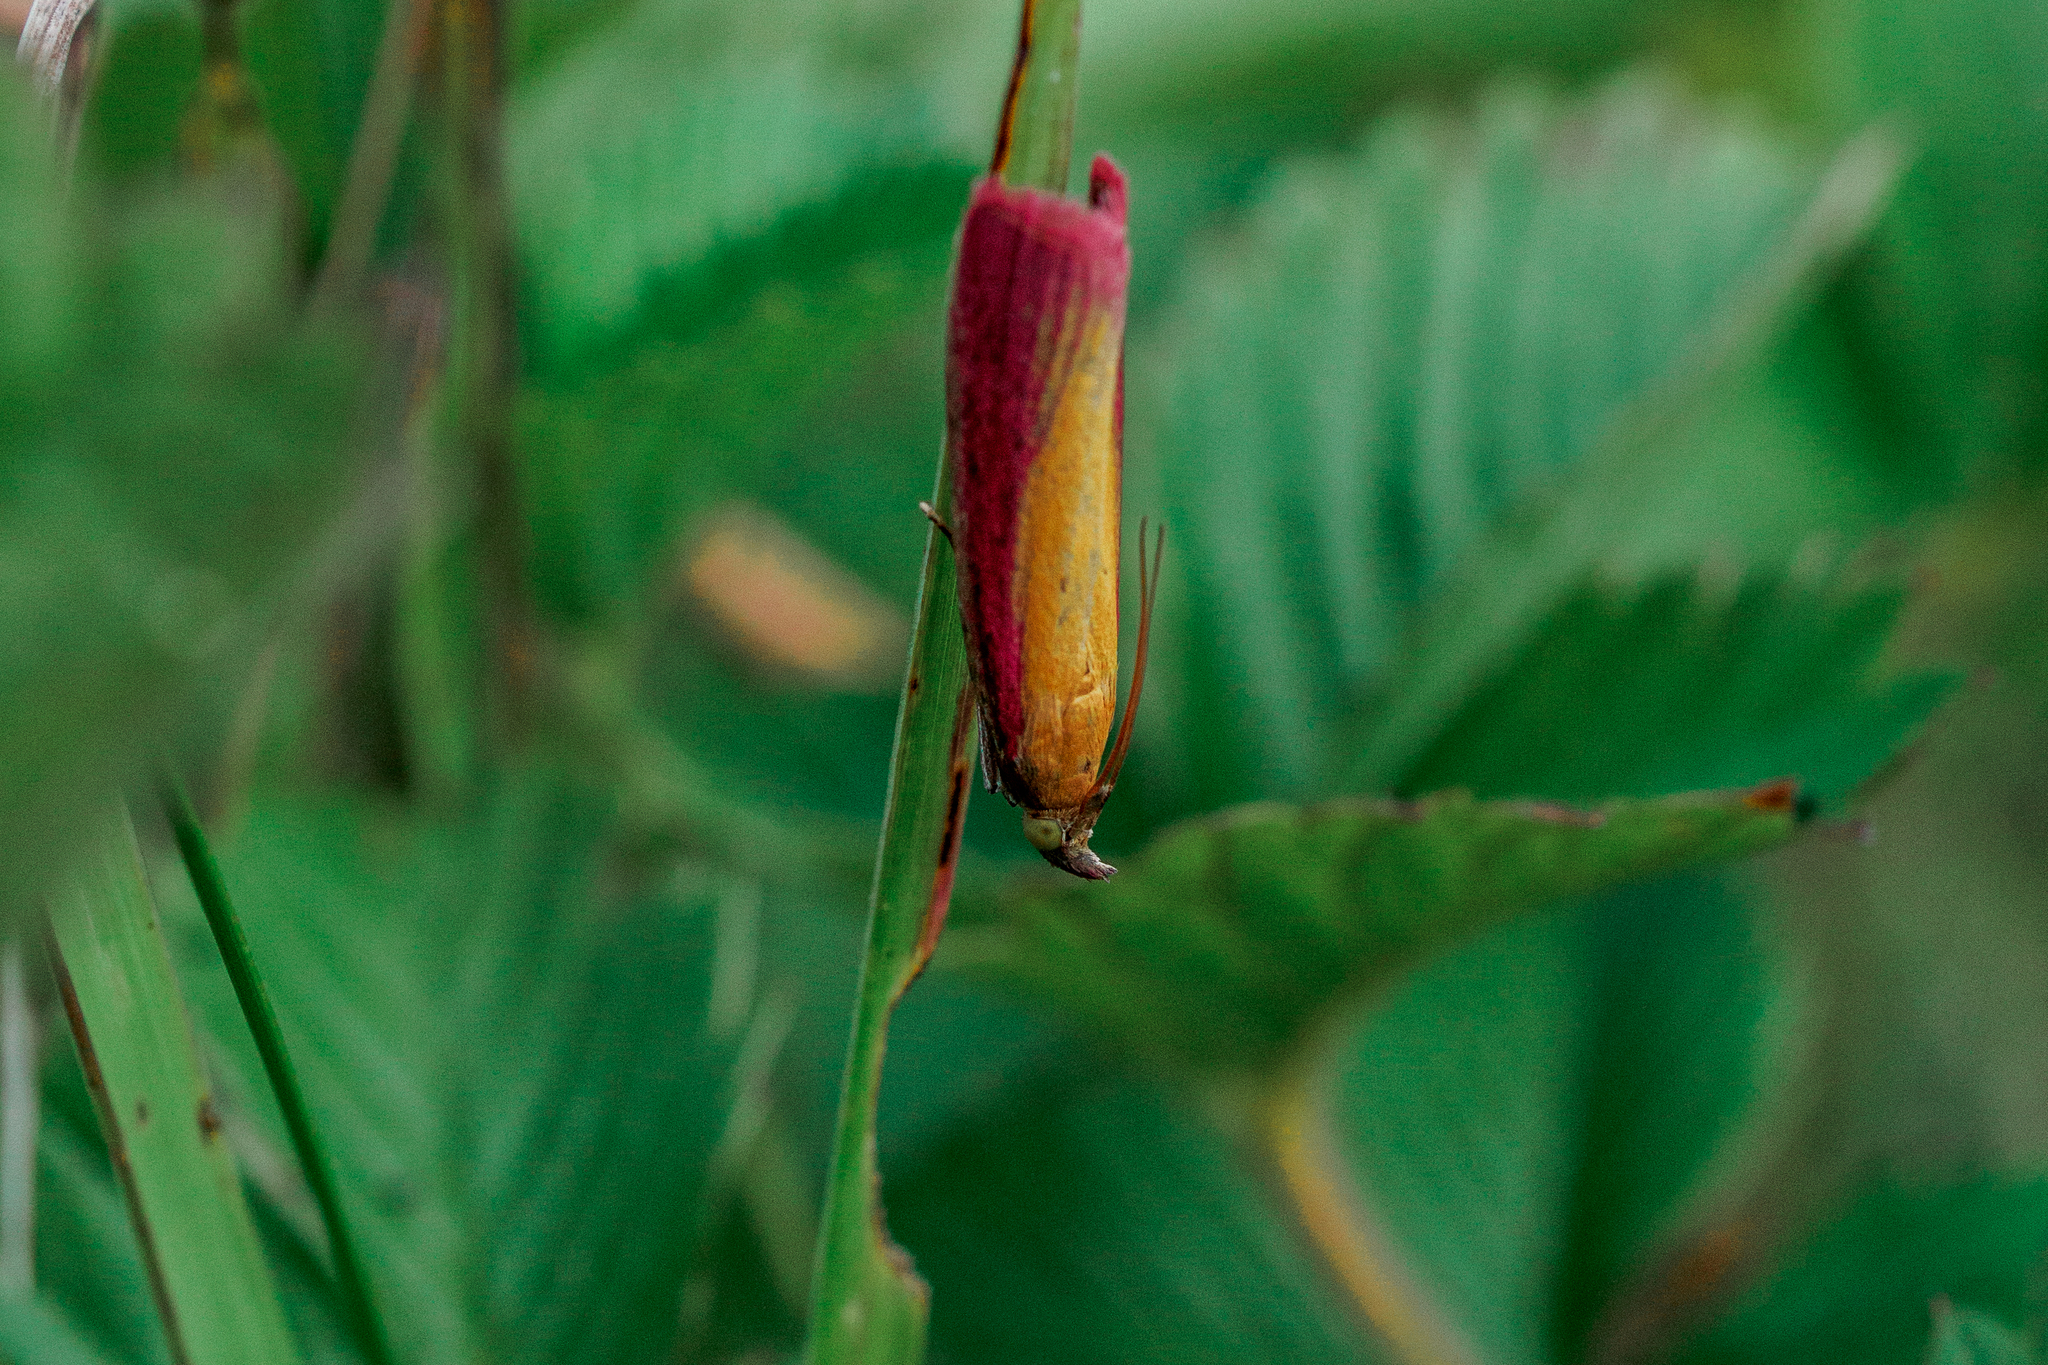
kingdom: Animalia
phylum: Arthropoda
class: Insecta
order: Lepidoptera
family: Pyralidae
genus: Oncocera
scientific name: Oncocera semirubella
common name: Rosy-striped knot-horn
